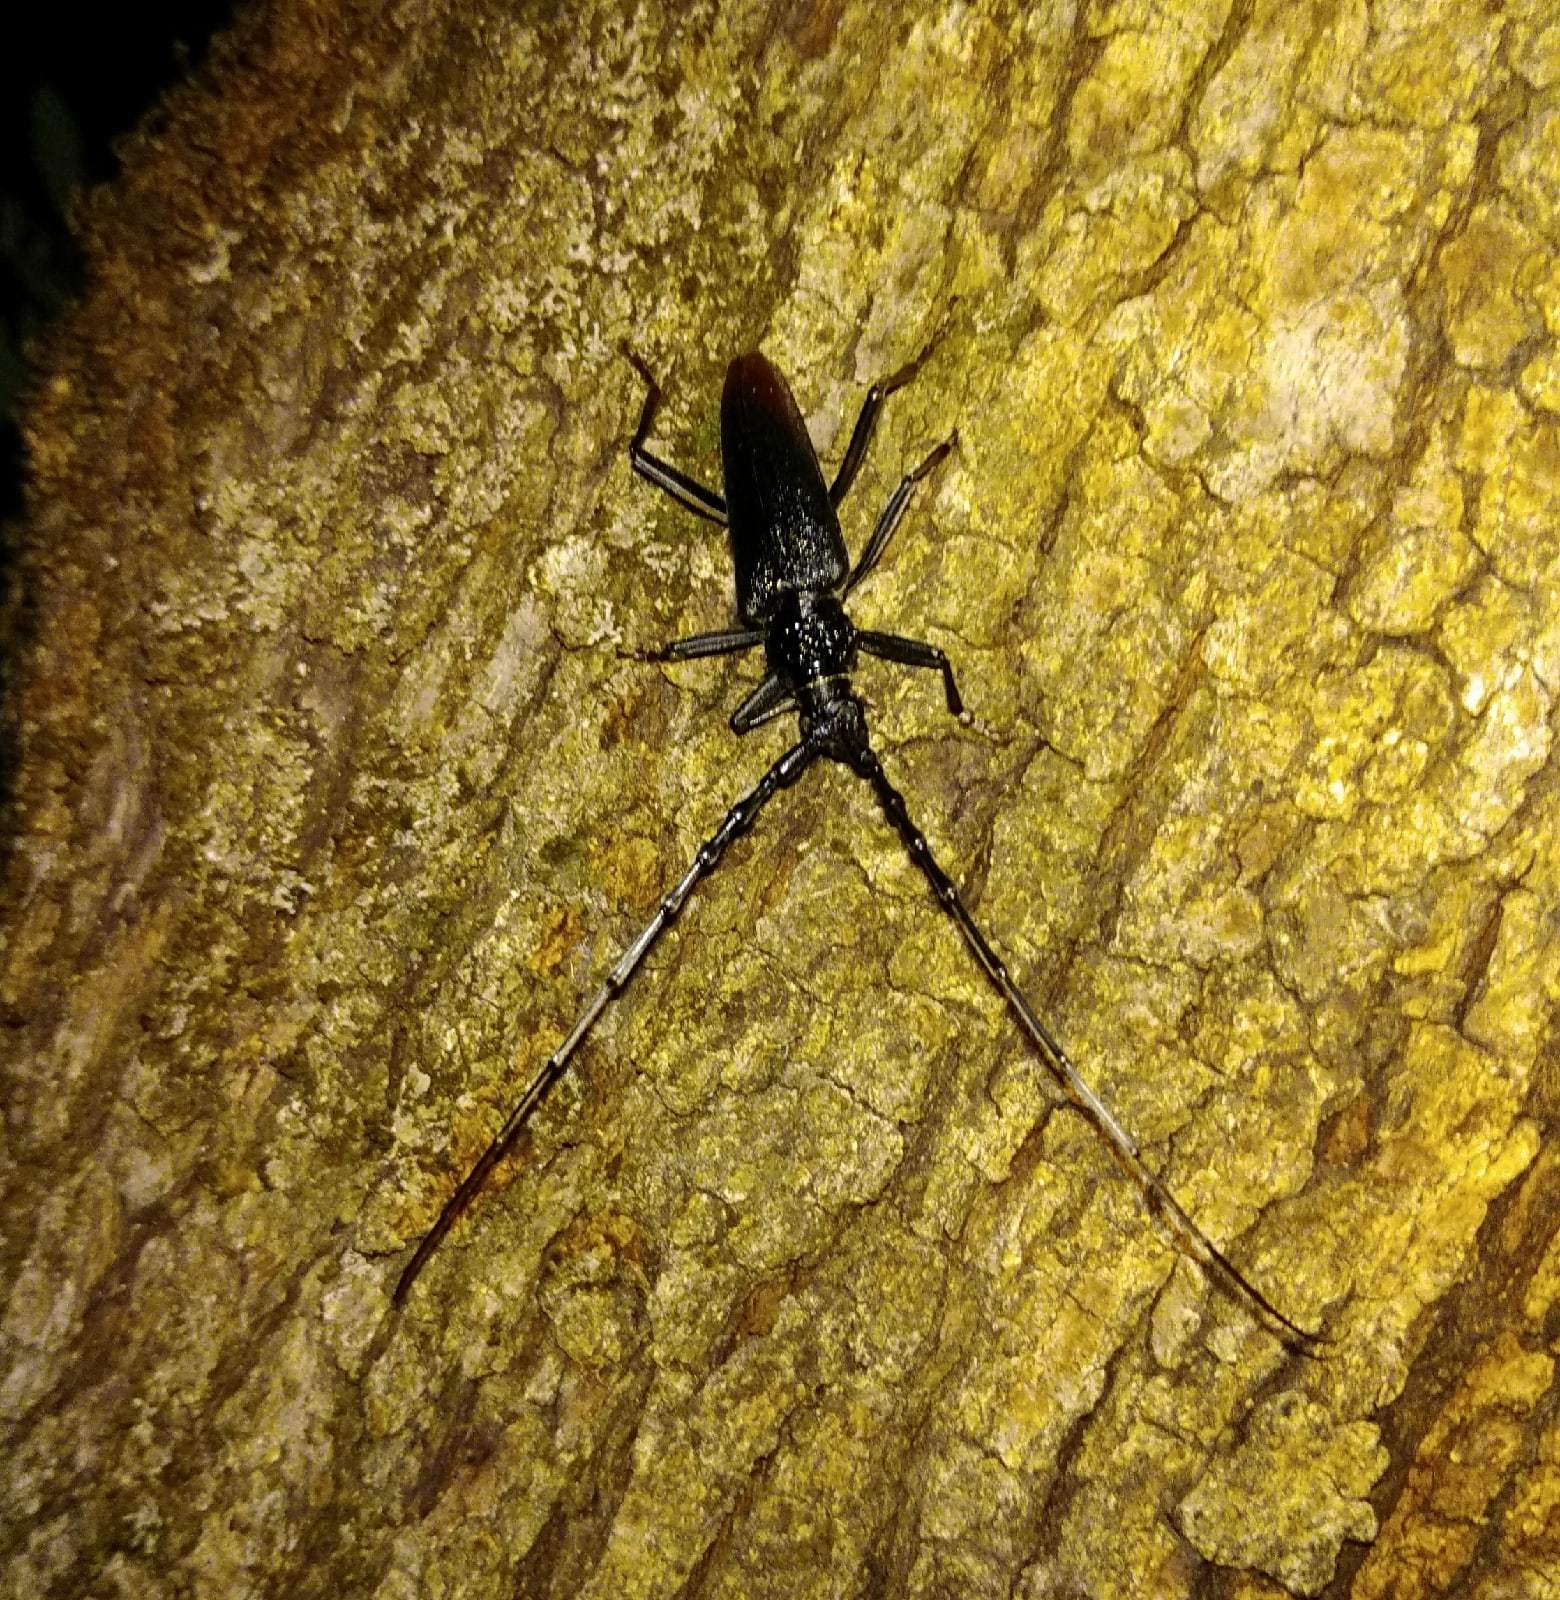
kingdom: Animalia
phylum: Arthropoda
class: Insecta
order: Coleoptera
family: Cerambycidae
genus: Cerambyx
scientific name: Cerambyx cerdo
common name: Cerambyx longicorn
